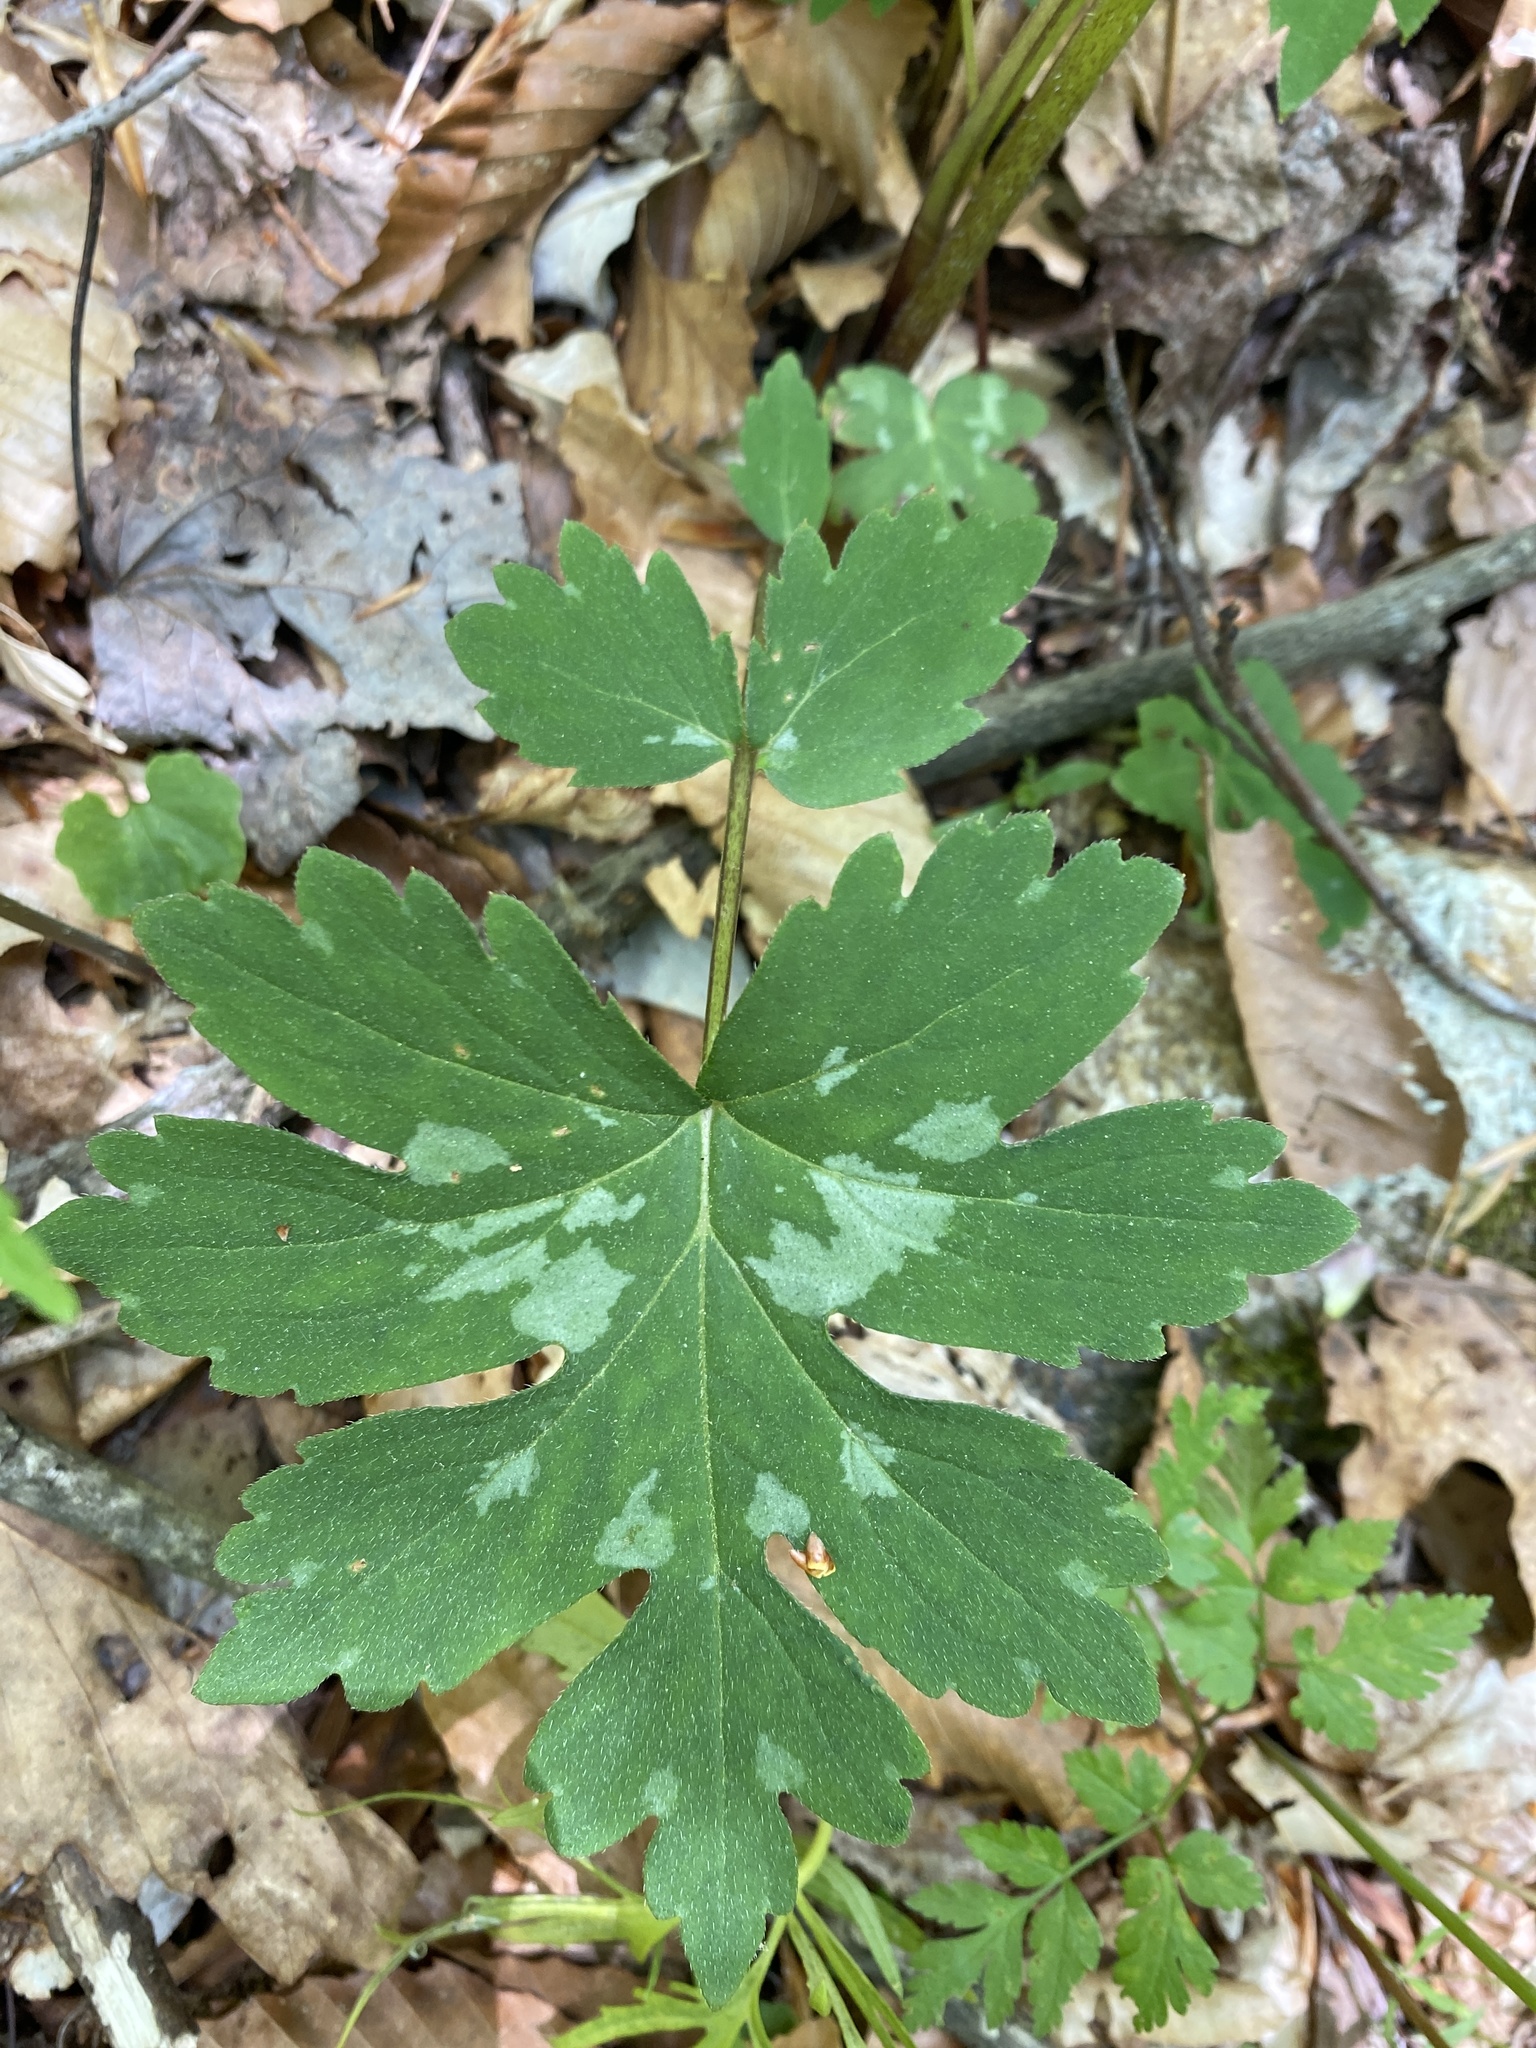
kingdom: Plantae
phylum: Tracheophyta
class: Magnoliopsida
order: Boraginales
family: Hydrophyllaceae
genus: Hydrophyllum
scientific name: Hydrophyllum canadense
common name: Canada waterleaf
